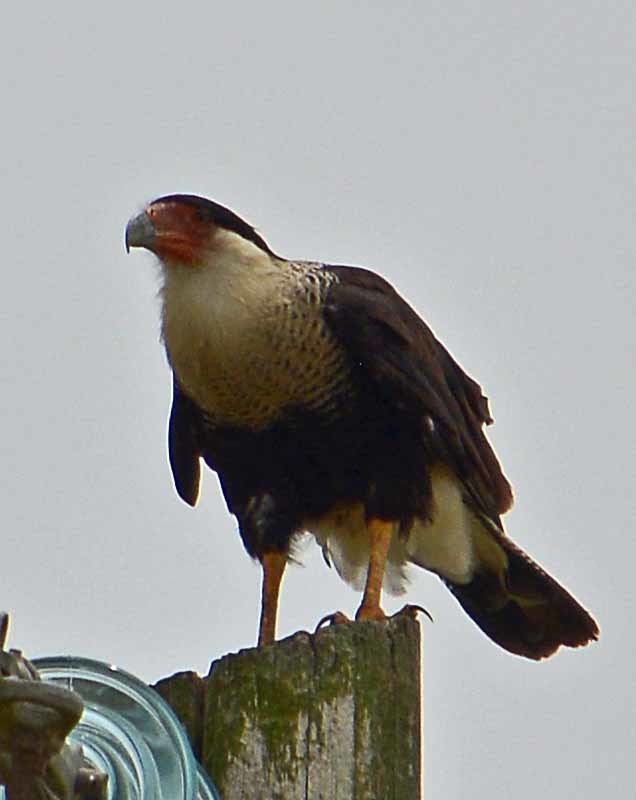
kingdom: Animalia
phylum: Chordata
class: Aves
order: Falconiformes
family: Falconidae
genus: Caracara
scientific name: Caracara plancus
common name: Southern caracara
